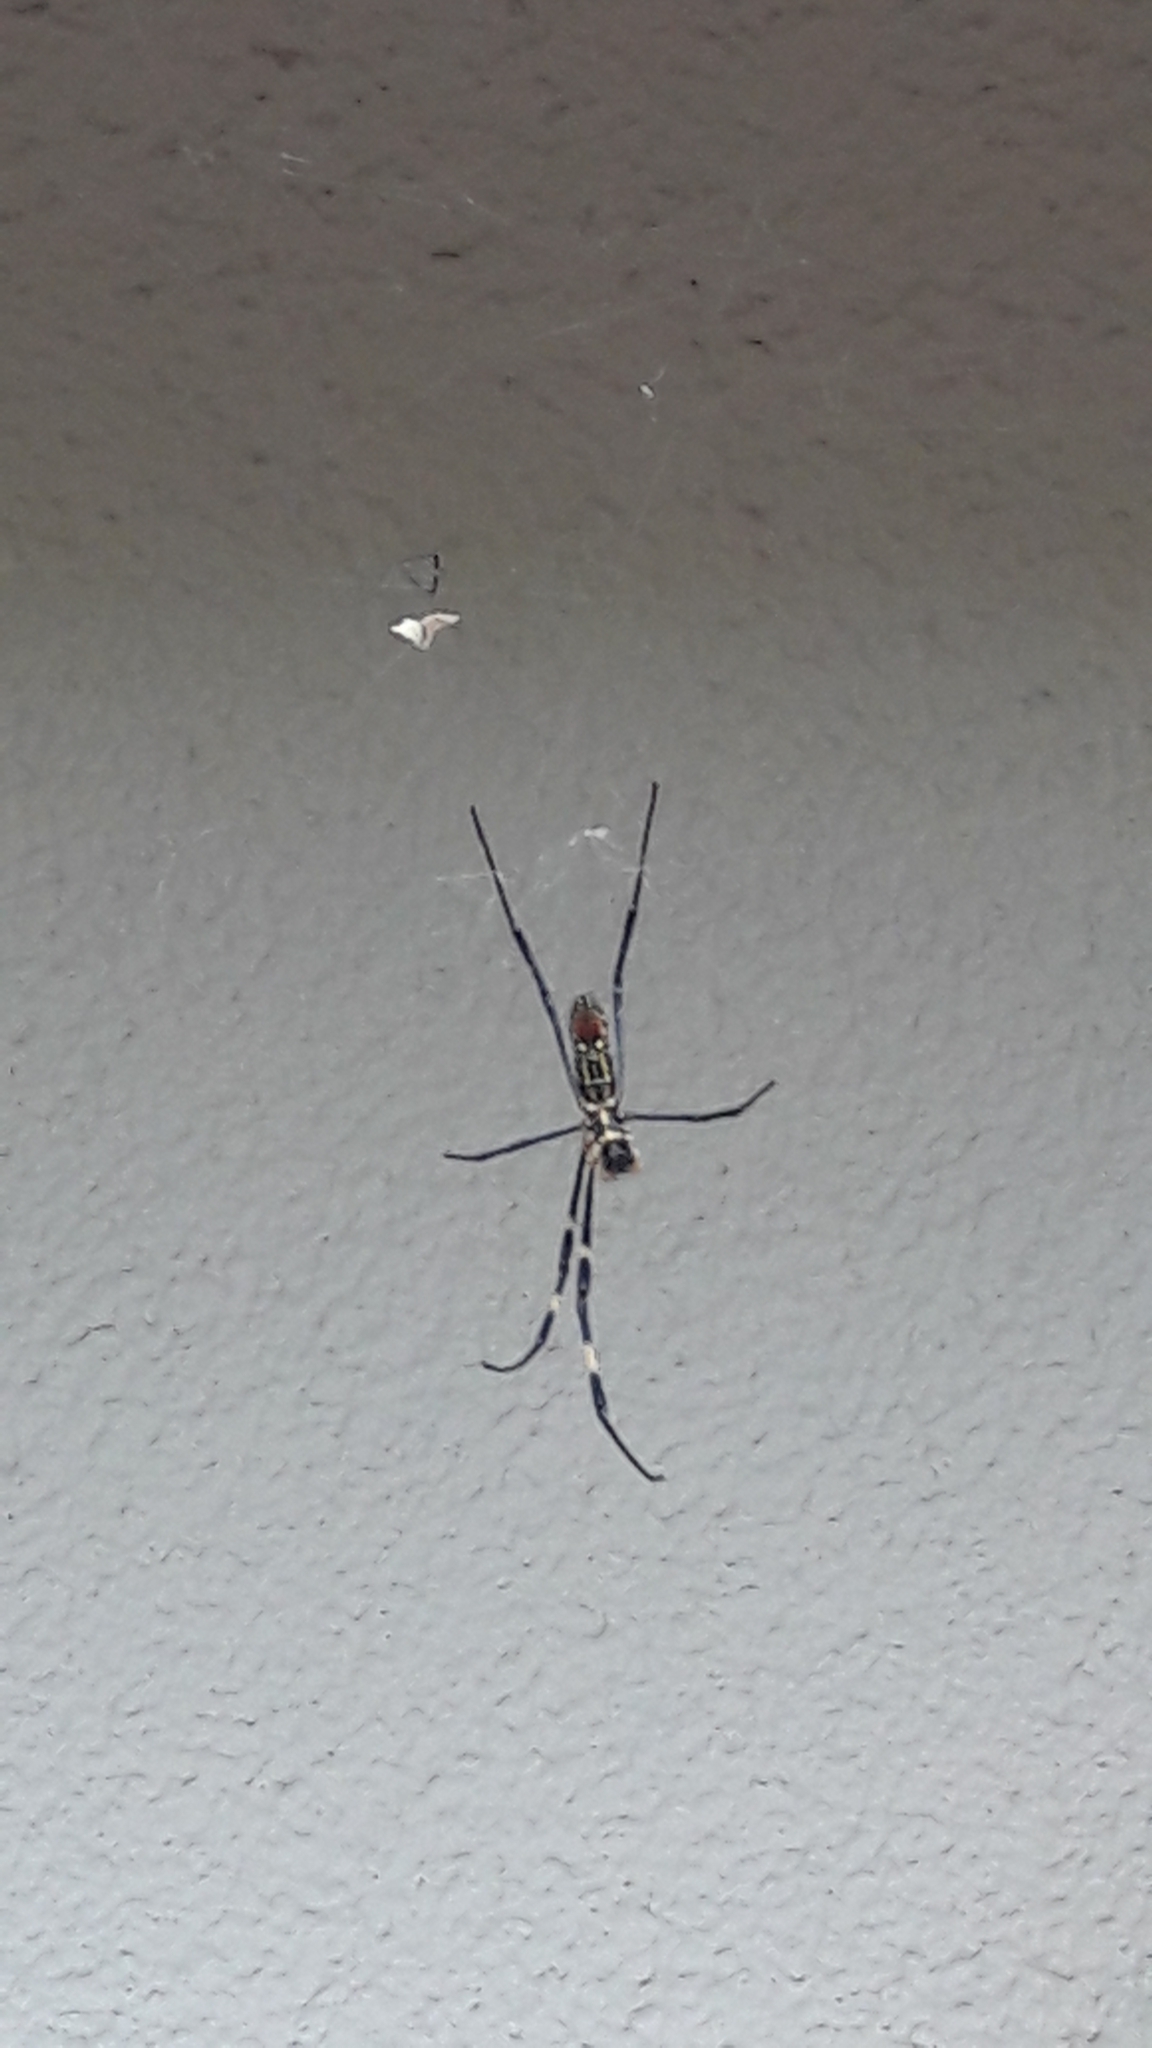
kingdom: Animalia
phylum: Arthropoda
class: Arachnida
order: Araneae
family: Araneidae
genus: Trichonephila
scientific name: Trichonephila clavata
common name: Jorō spider
